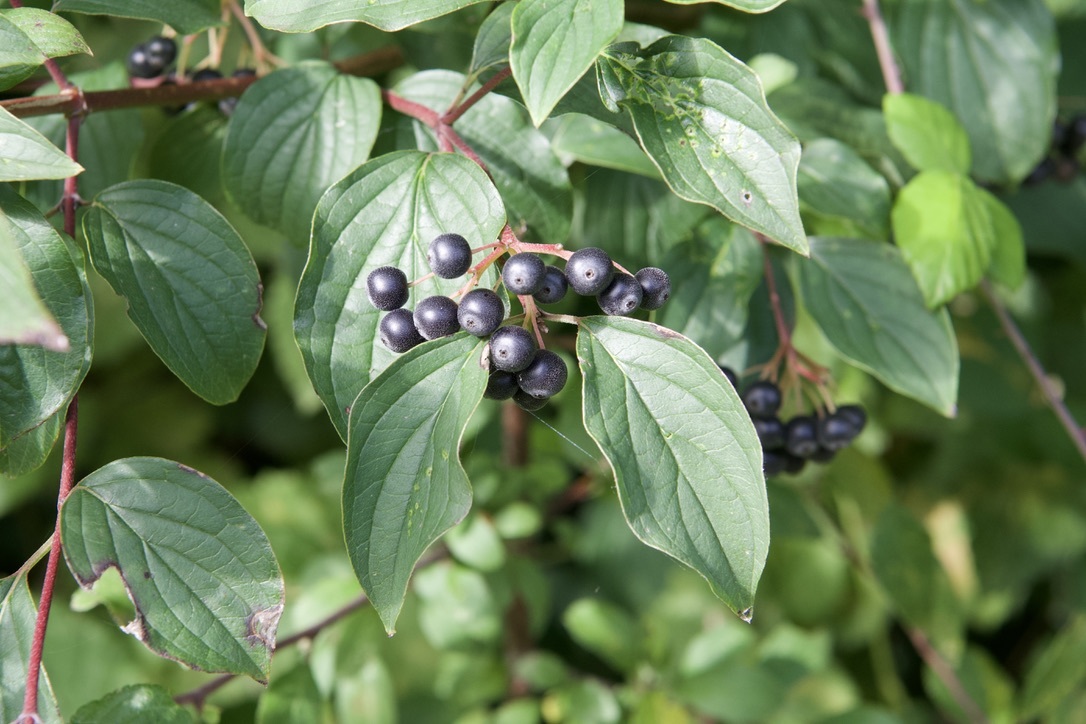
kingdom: Plantae
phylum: Tracheophyta
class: Magnoliopsida
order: Cornales
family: Cornaceae
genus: Cornus
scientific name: Cornus sanguinea
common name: Dogwood
